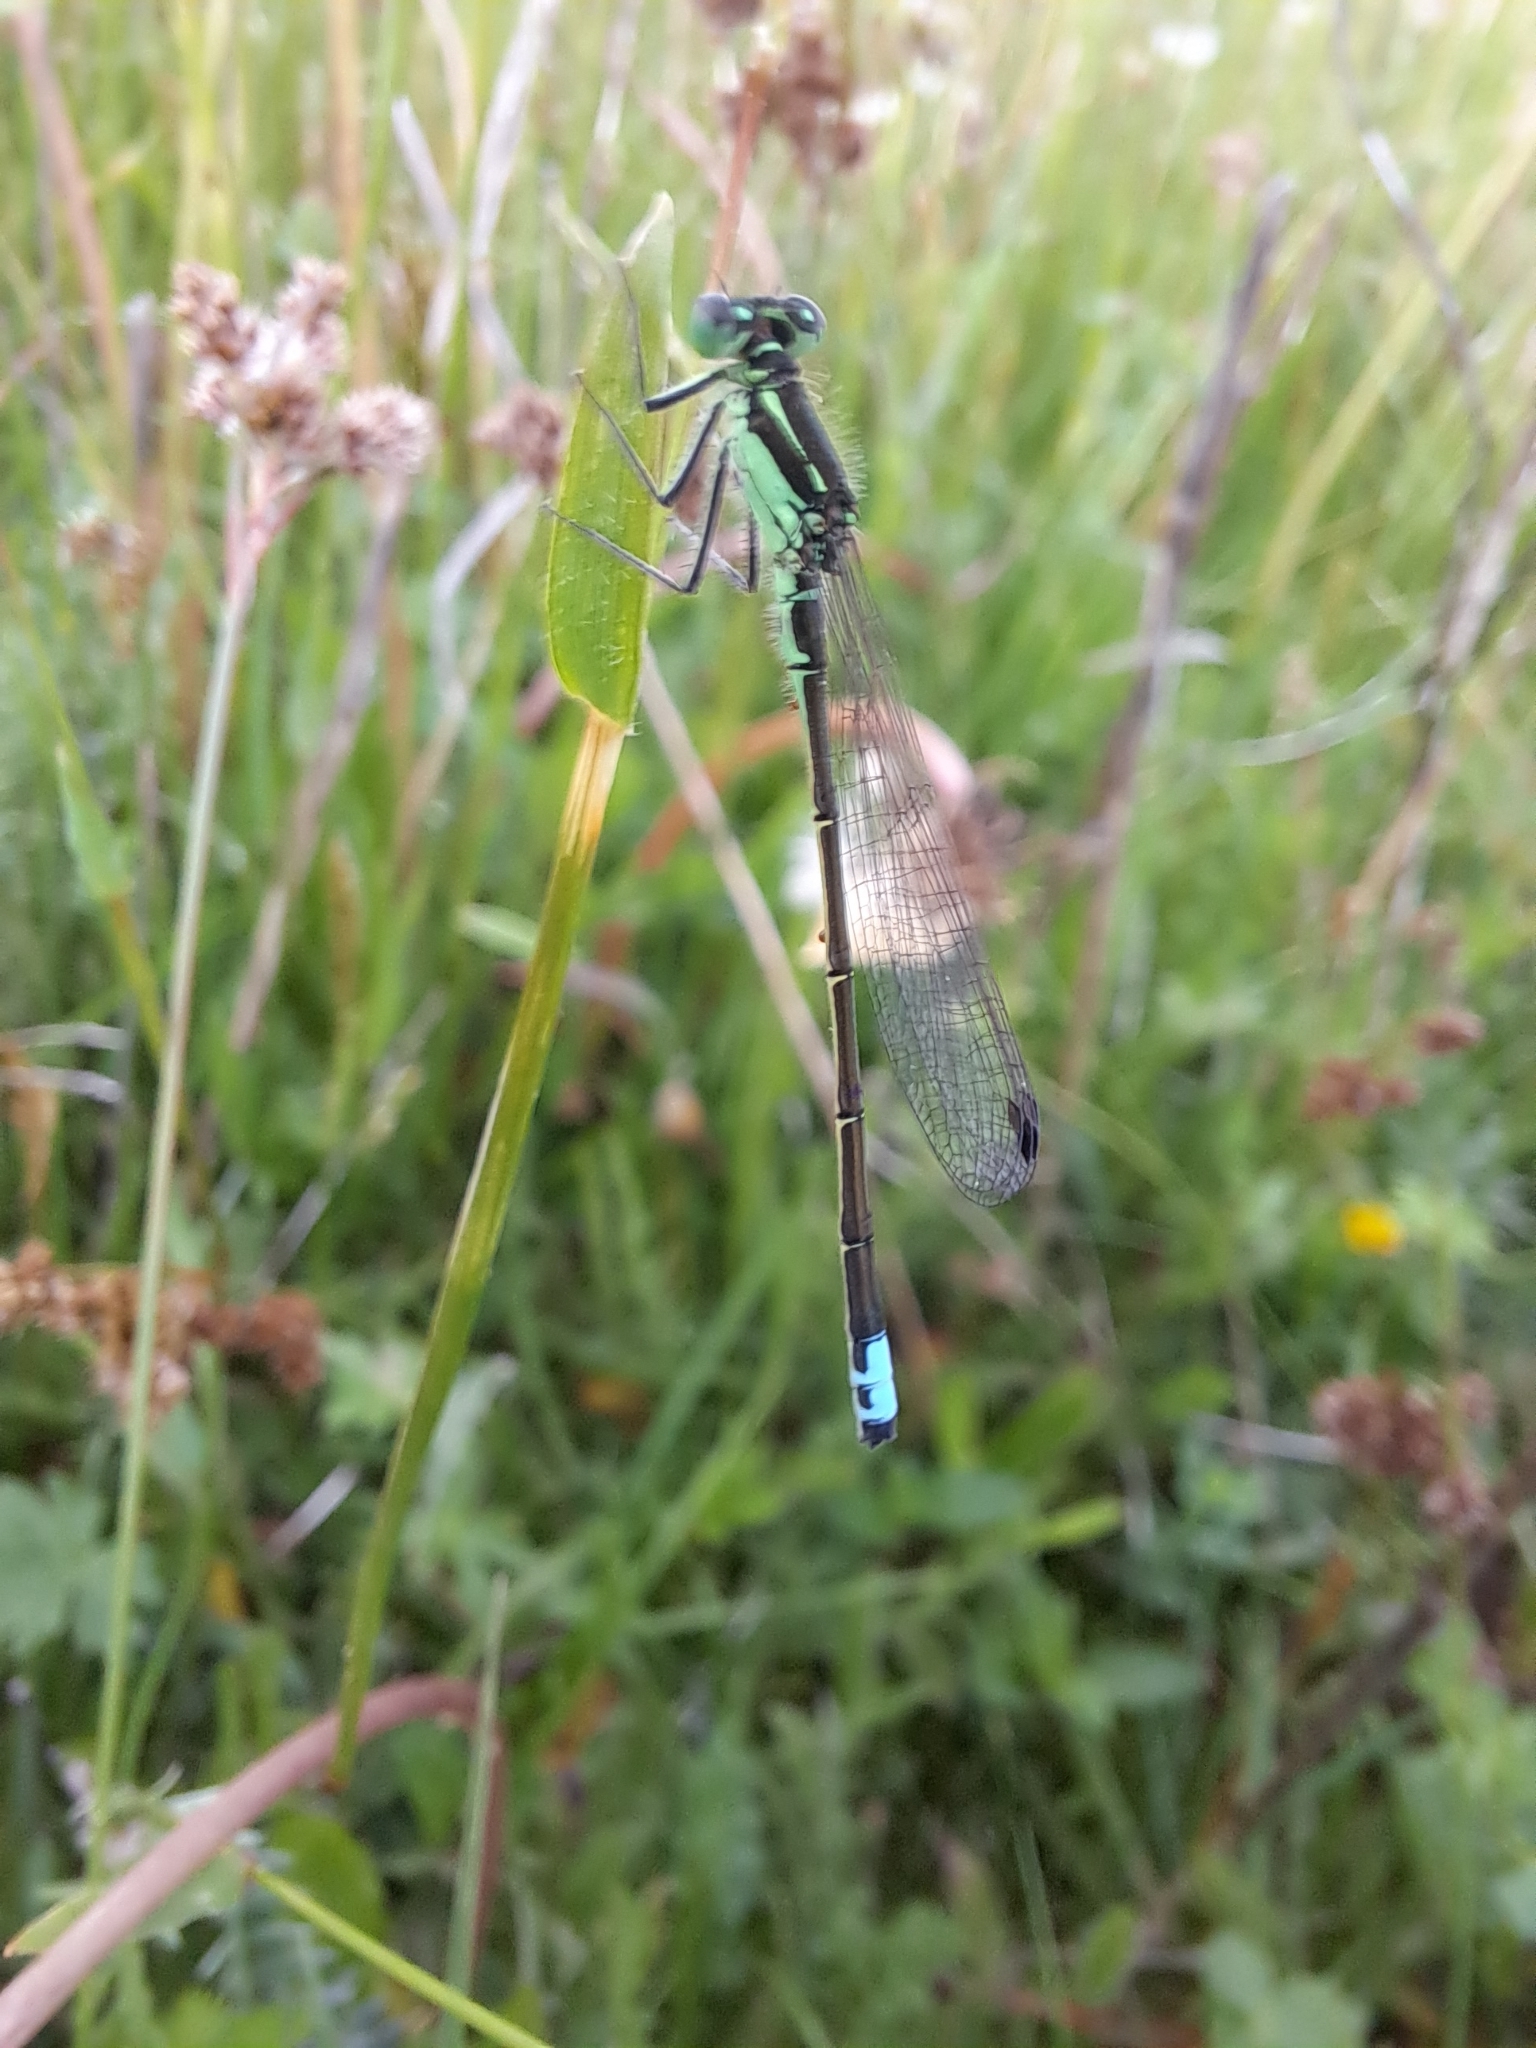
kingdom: Animalia
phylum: Arthropoda
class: Insecta
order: Odonata
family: Coenagrionidae
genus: Ischnura
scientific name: Ischnura verticalis
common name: Eastern forktail
